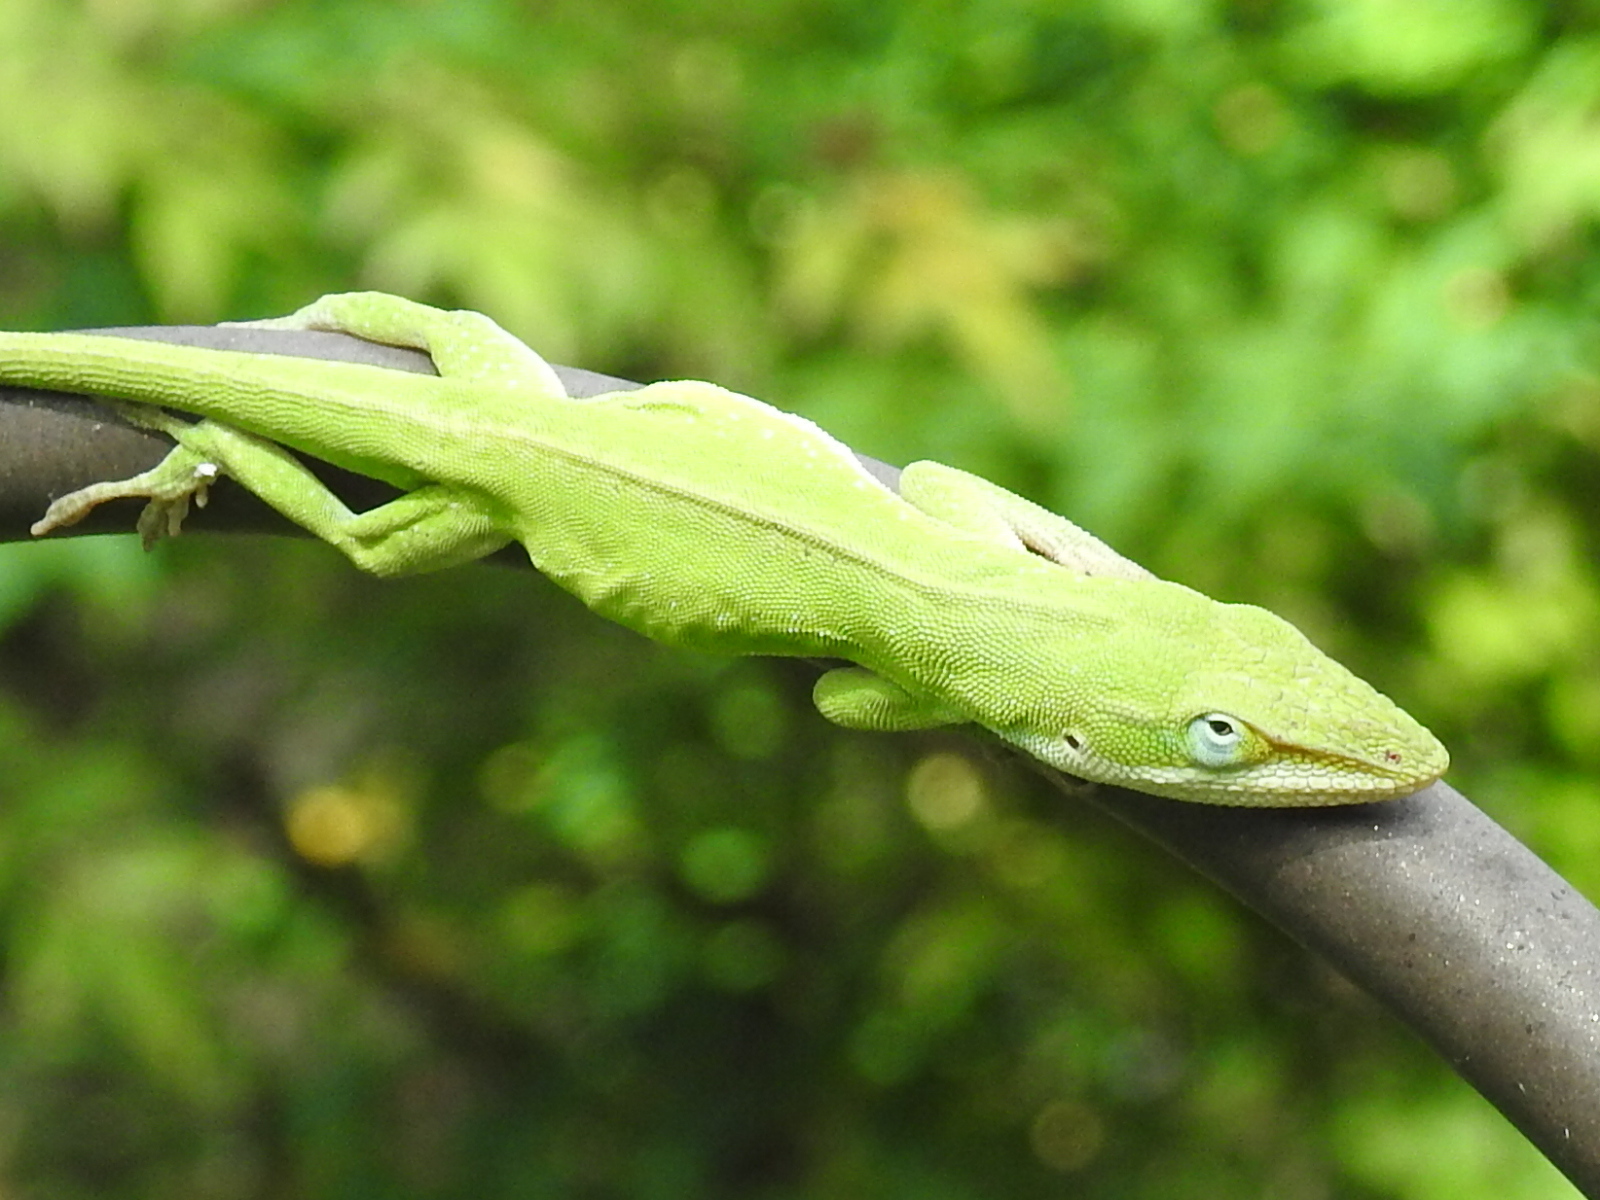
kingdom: Animalia
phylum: Chordata
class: Squamata
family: Dactyloidae
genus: Anolis
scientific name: Anolis carolinensis
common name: Green anole
